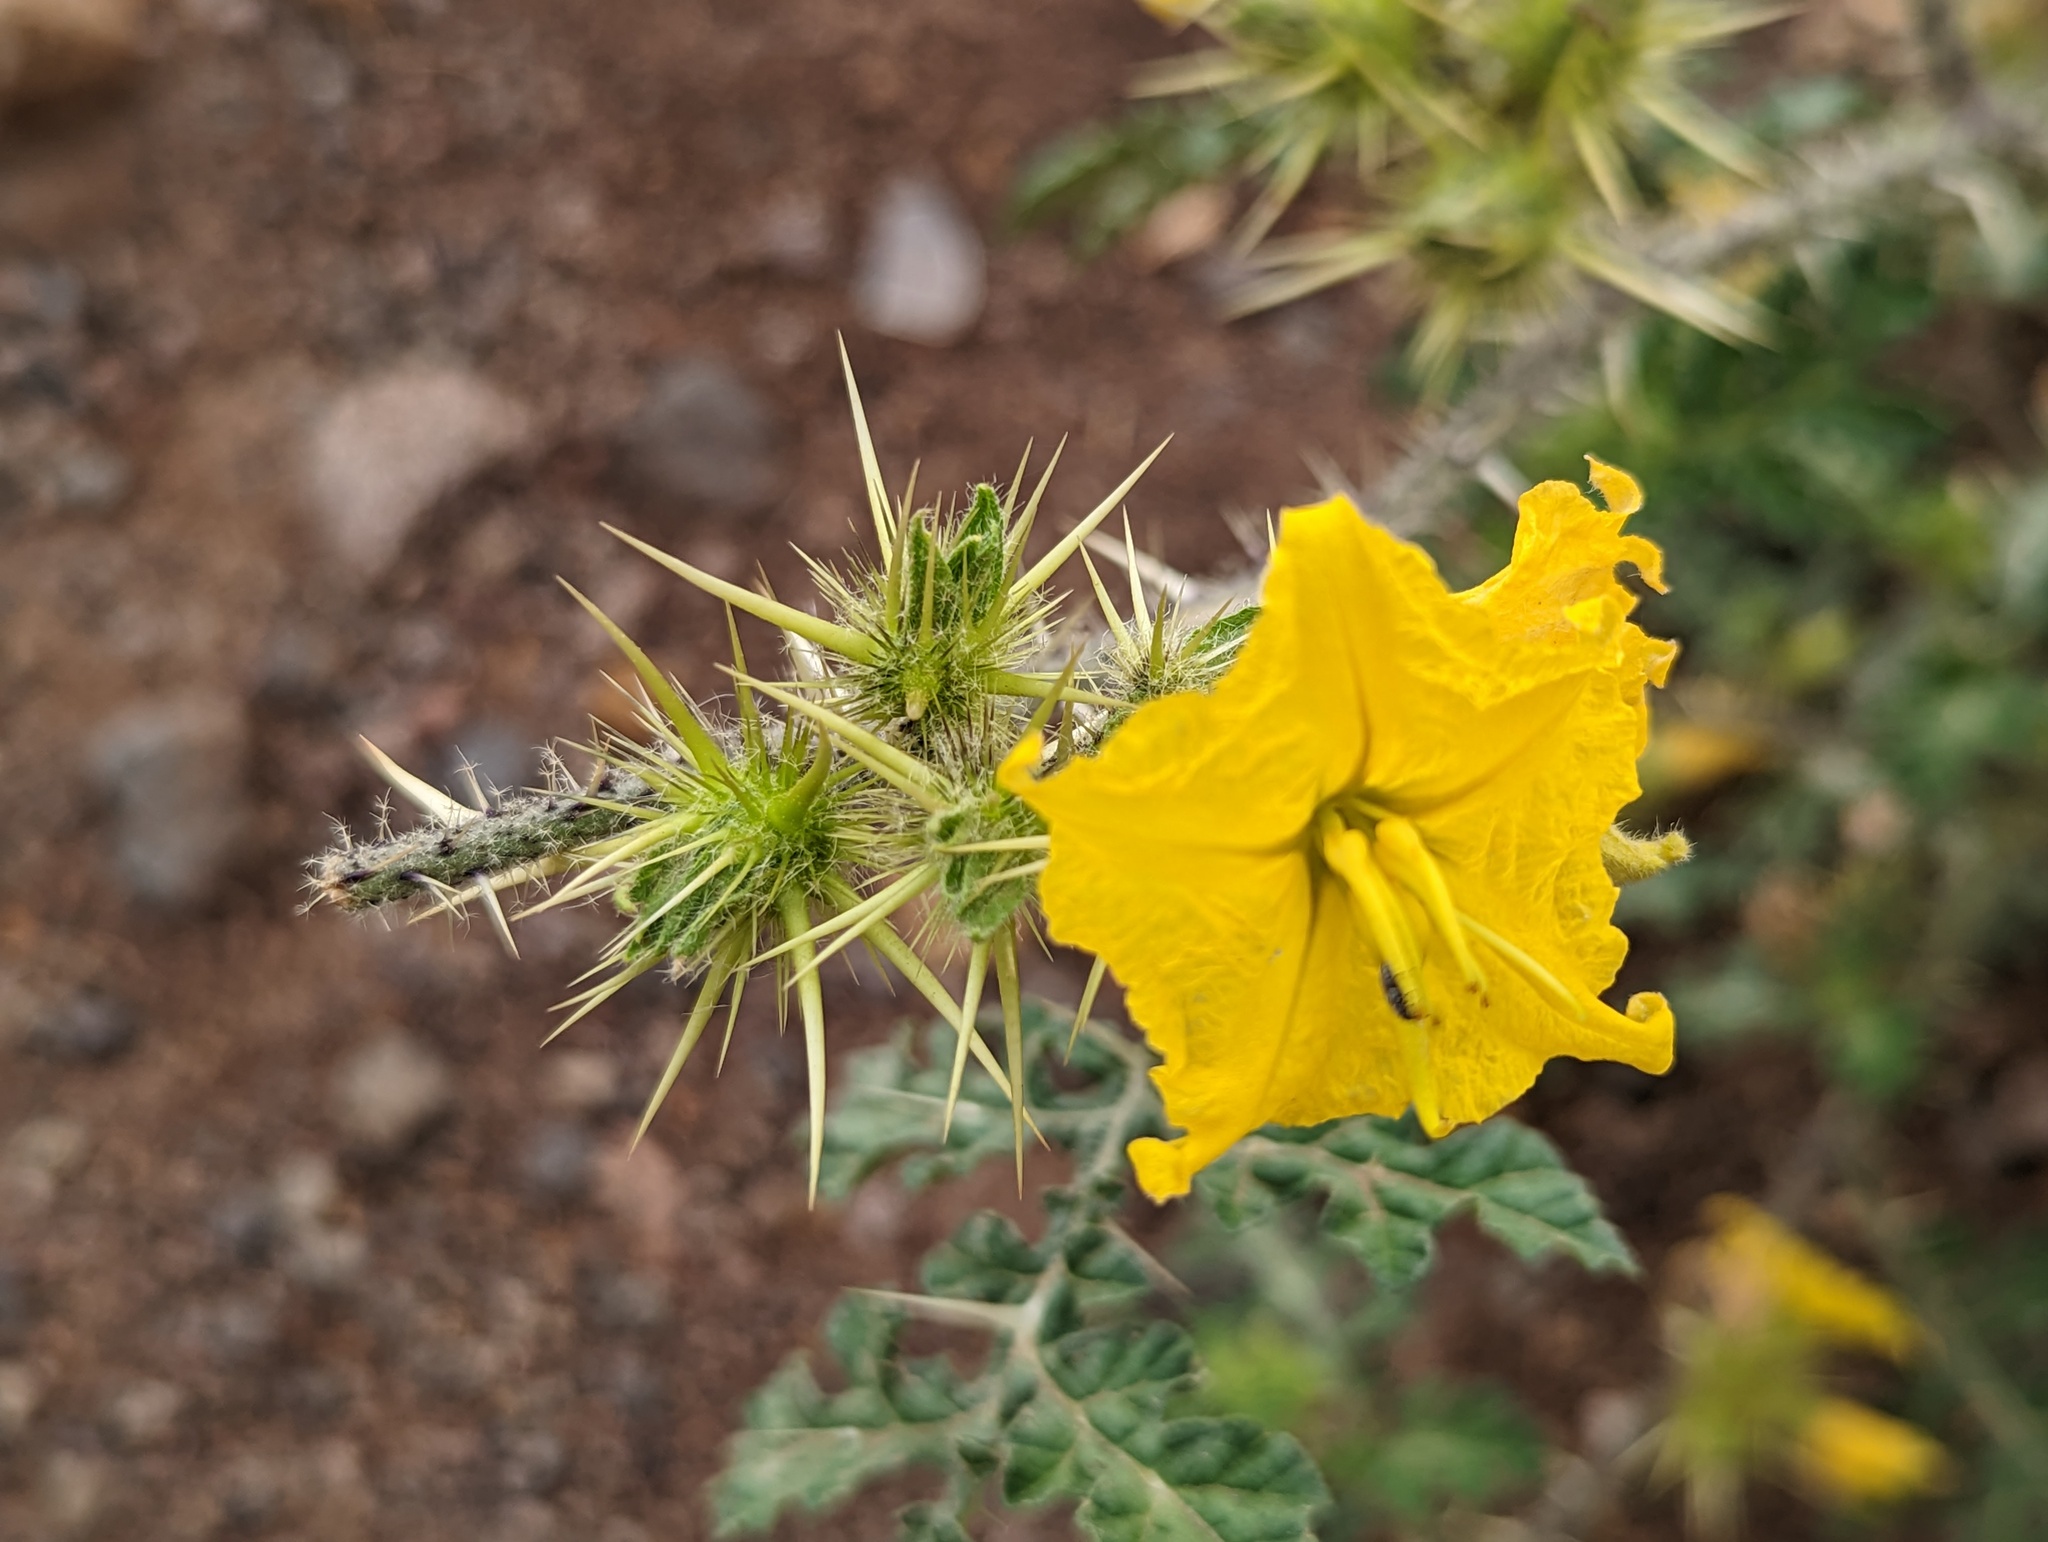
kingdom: Plantae
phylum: Tracheophyta
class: Magnoliopsida
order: Solanales
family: Solanaceae
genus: Solanum
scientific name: Solanum angustifolium
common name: Buffalobur nightshade
